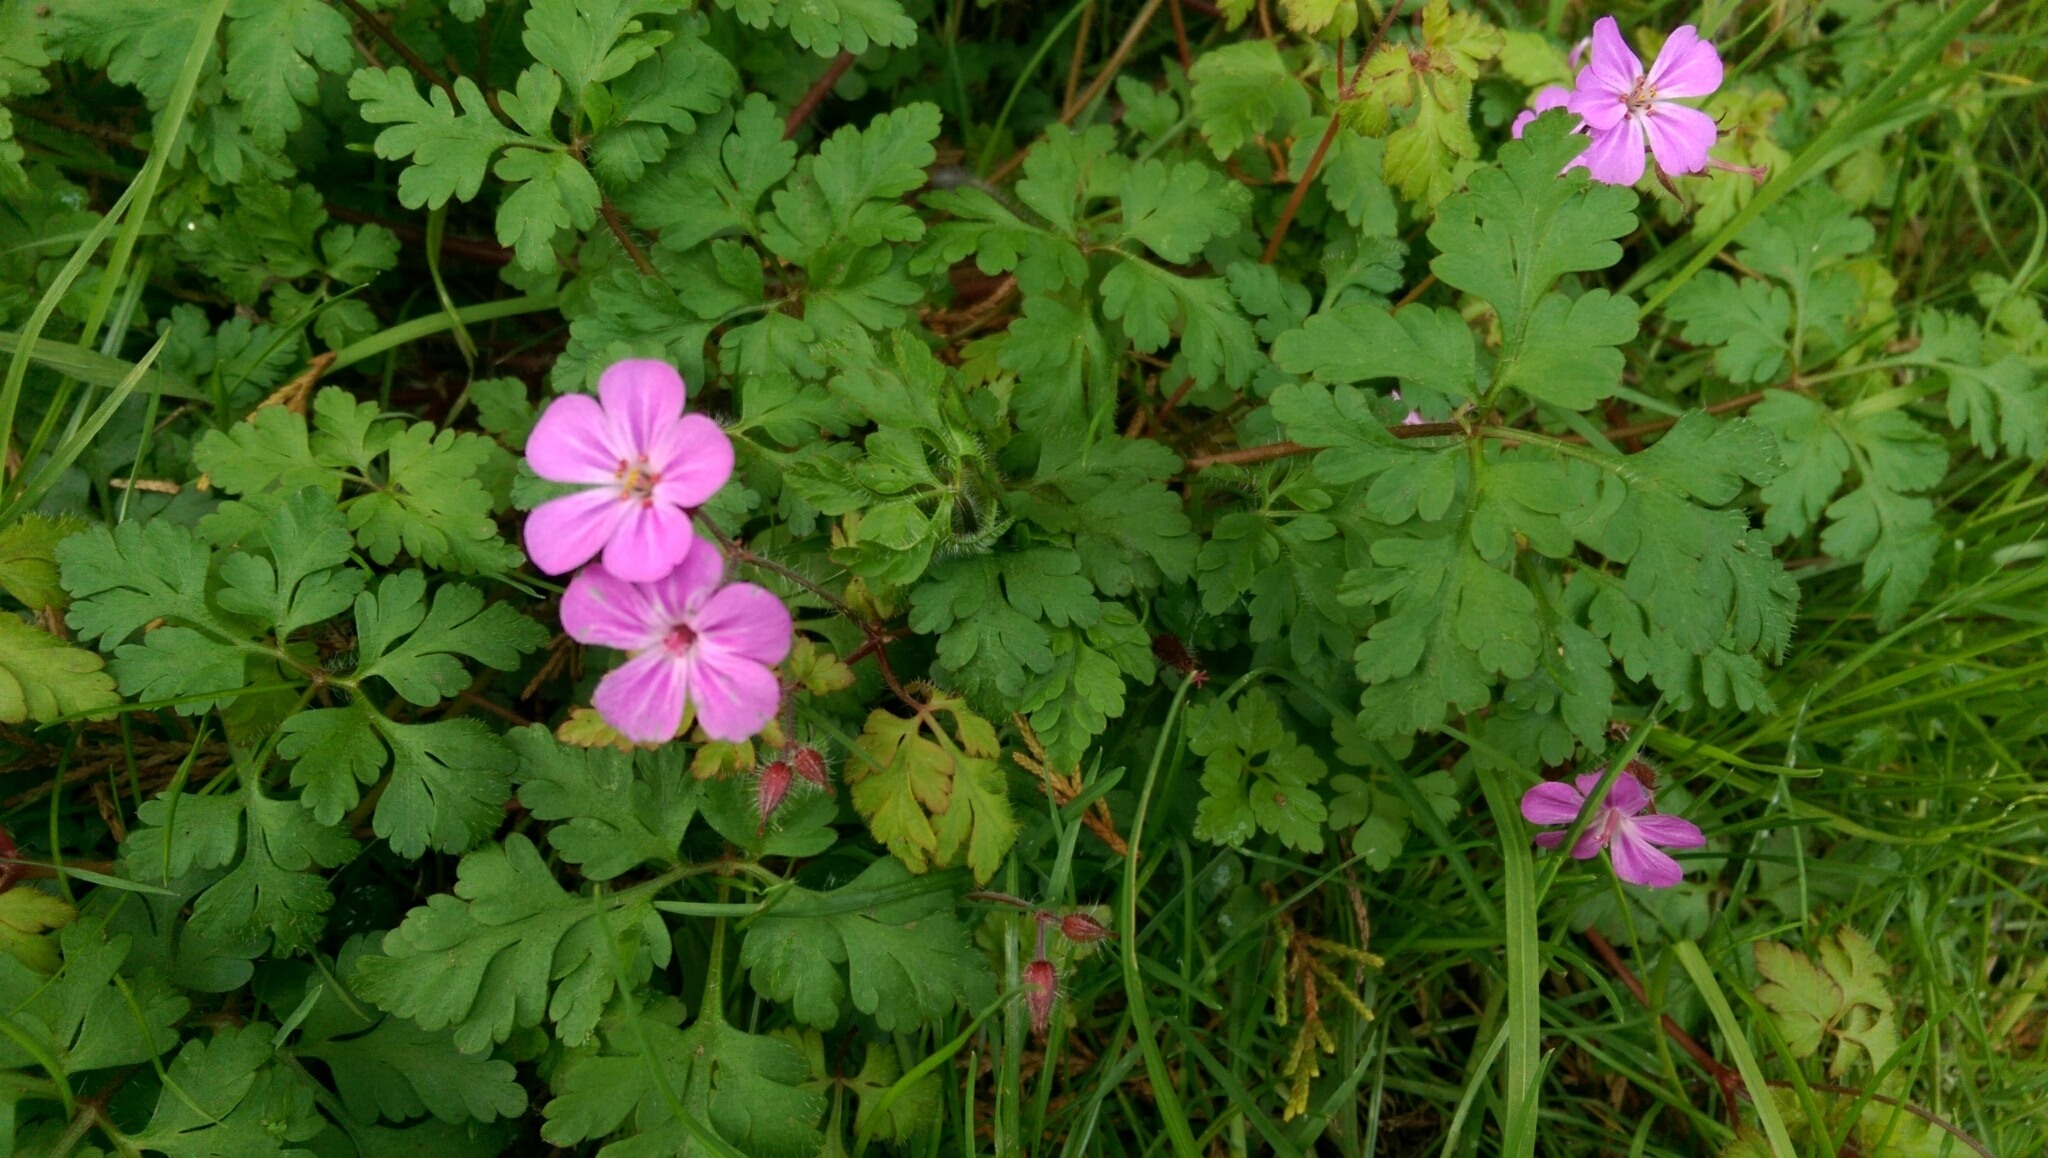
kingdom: Plantae
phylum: Tracheophyta
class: Magnoliopsida
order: Geraniales
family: Geraniaceae
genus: Geranium
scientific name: Geranium robertianum
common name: Herb-robert
